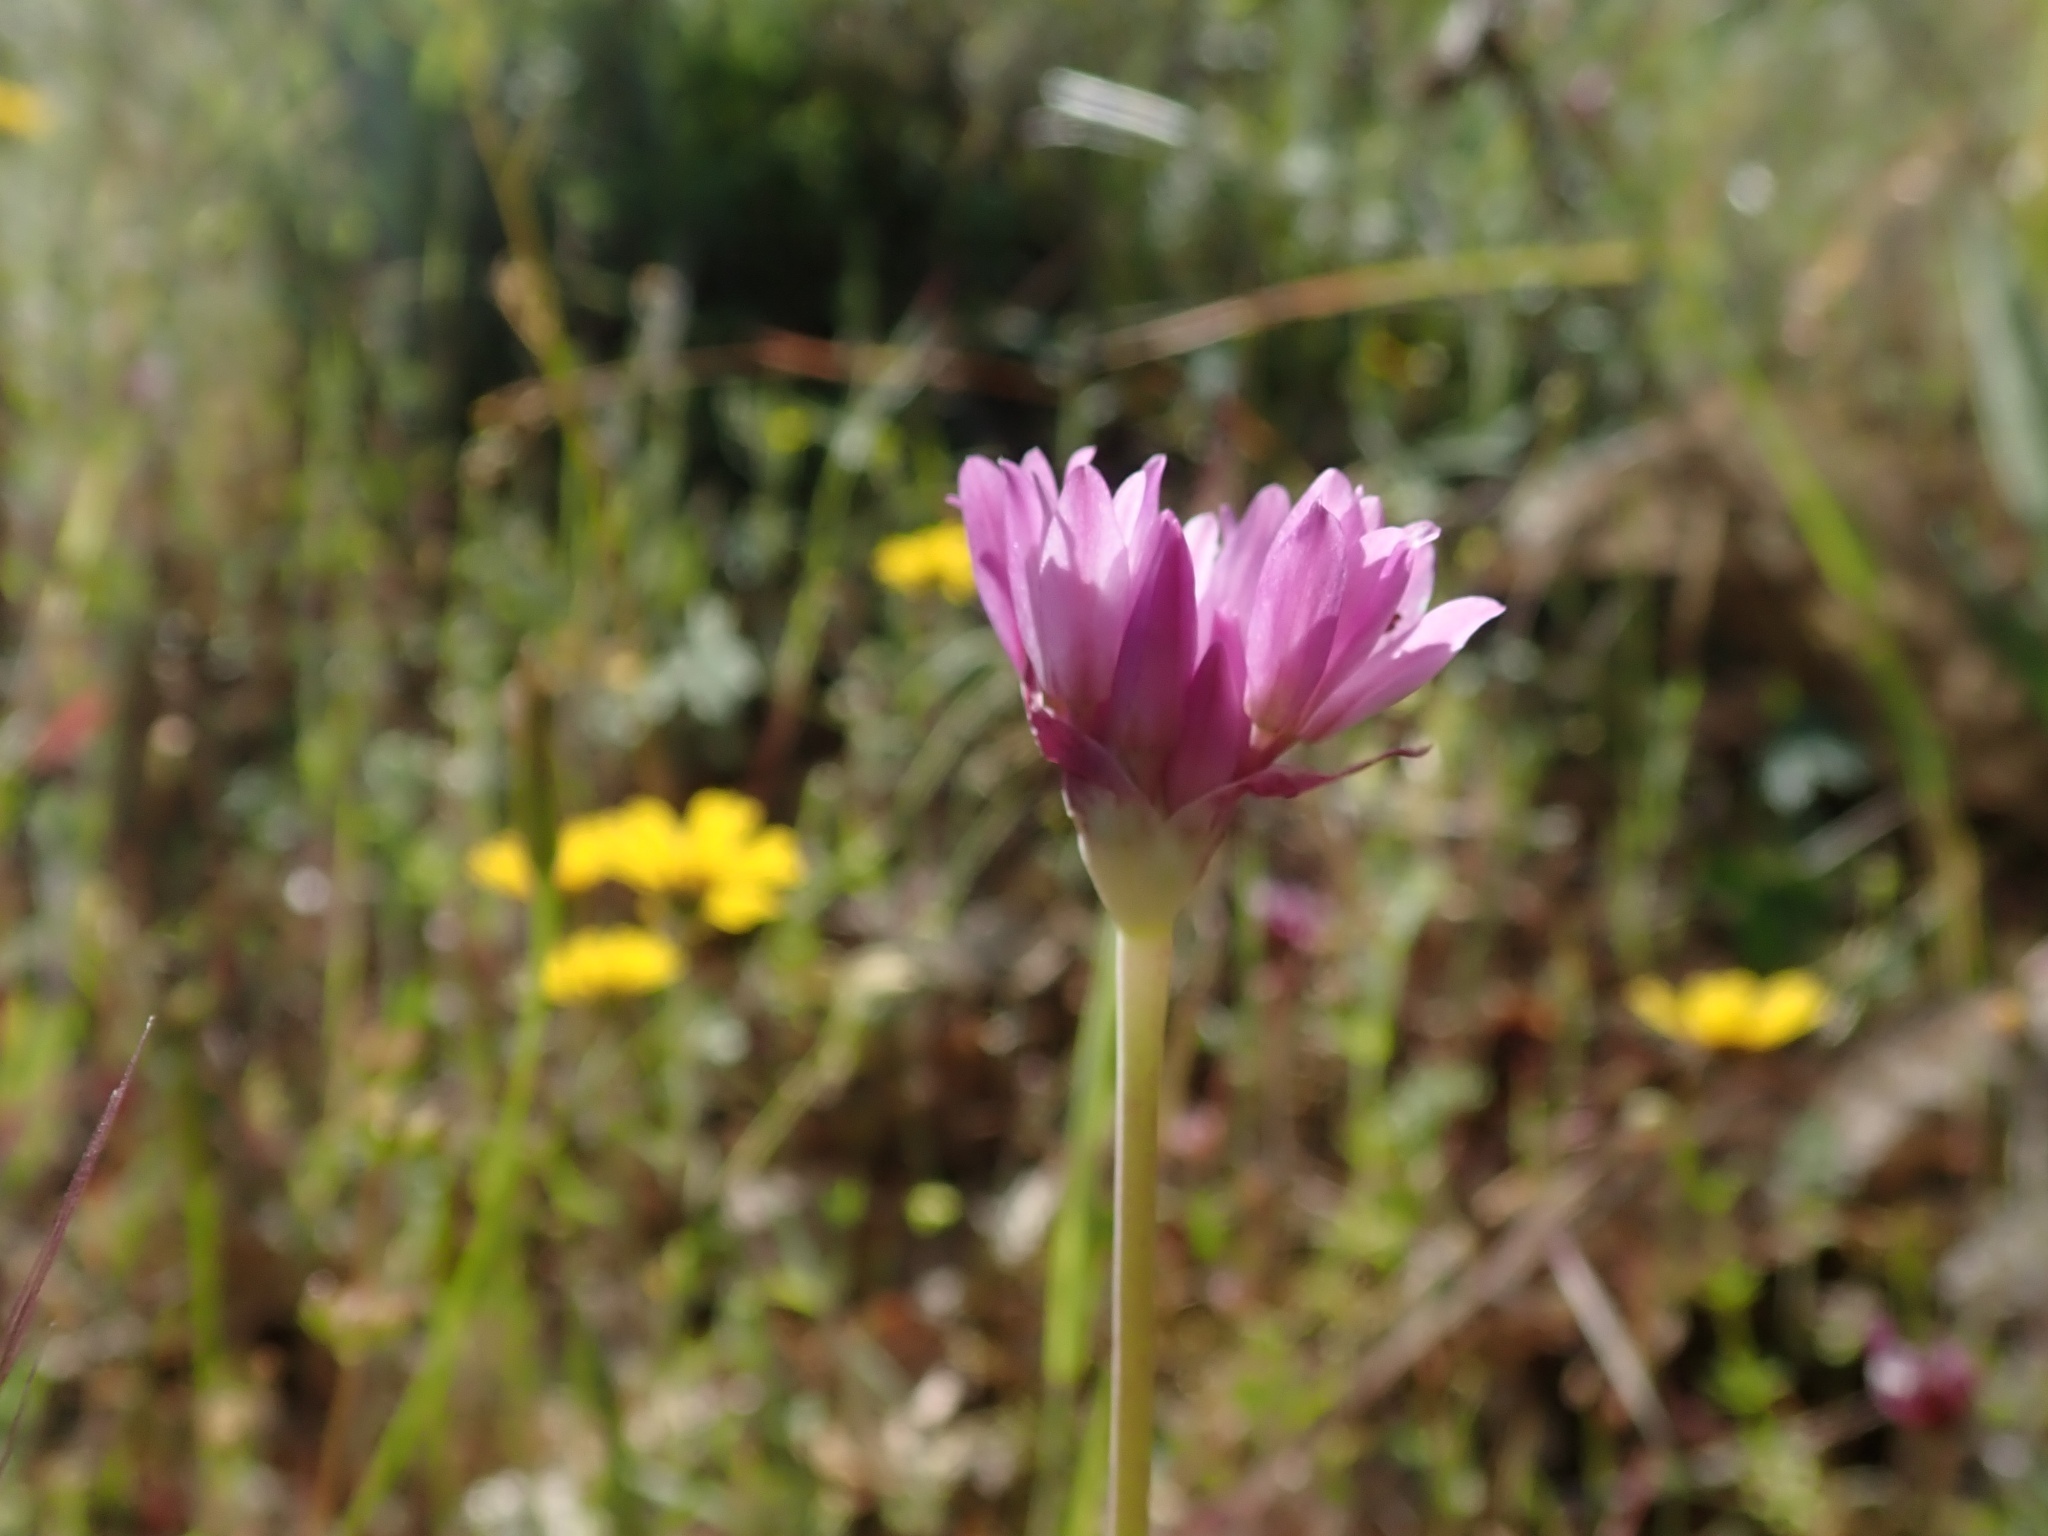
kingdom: Plantae
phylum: Tracheophyta
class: Liliopsida
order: Asparagales
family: Amaryllidaceae
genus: Allium
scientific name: Allium serra
